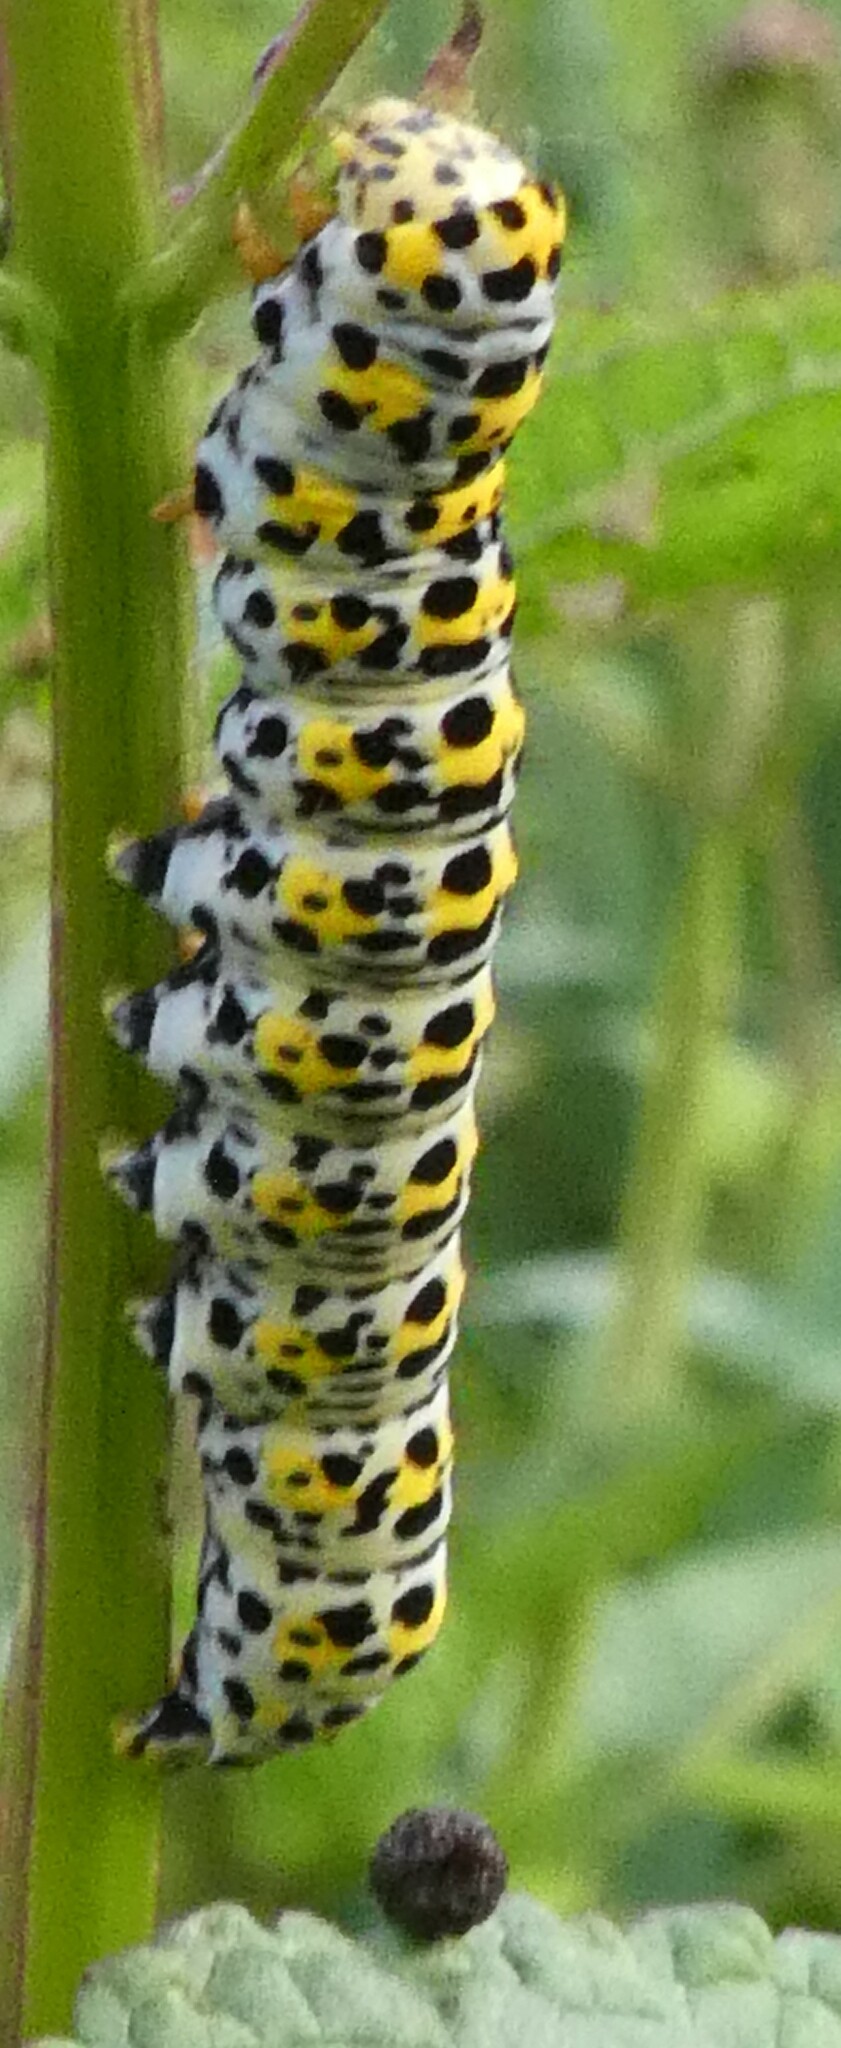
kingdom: Animalia
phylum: Arthropoda
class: Insecta
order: Lepidoptera
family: Noctuidae
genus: Cucullia
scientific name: Cucullia verbasci
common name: Mullein
